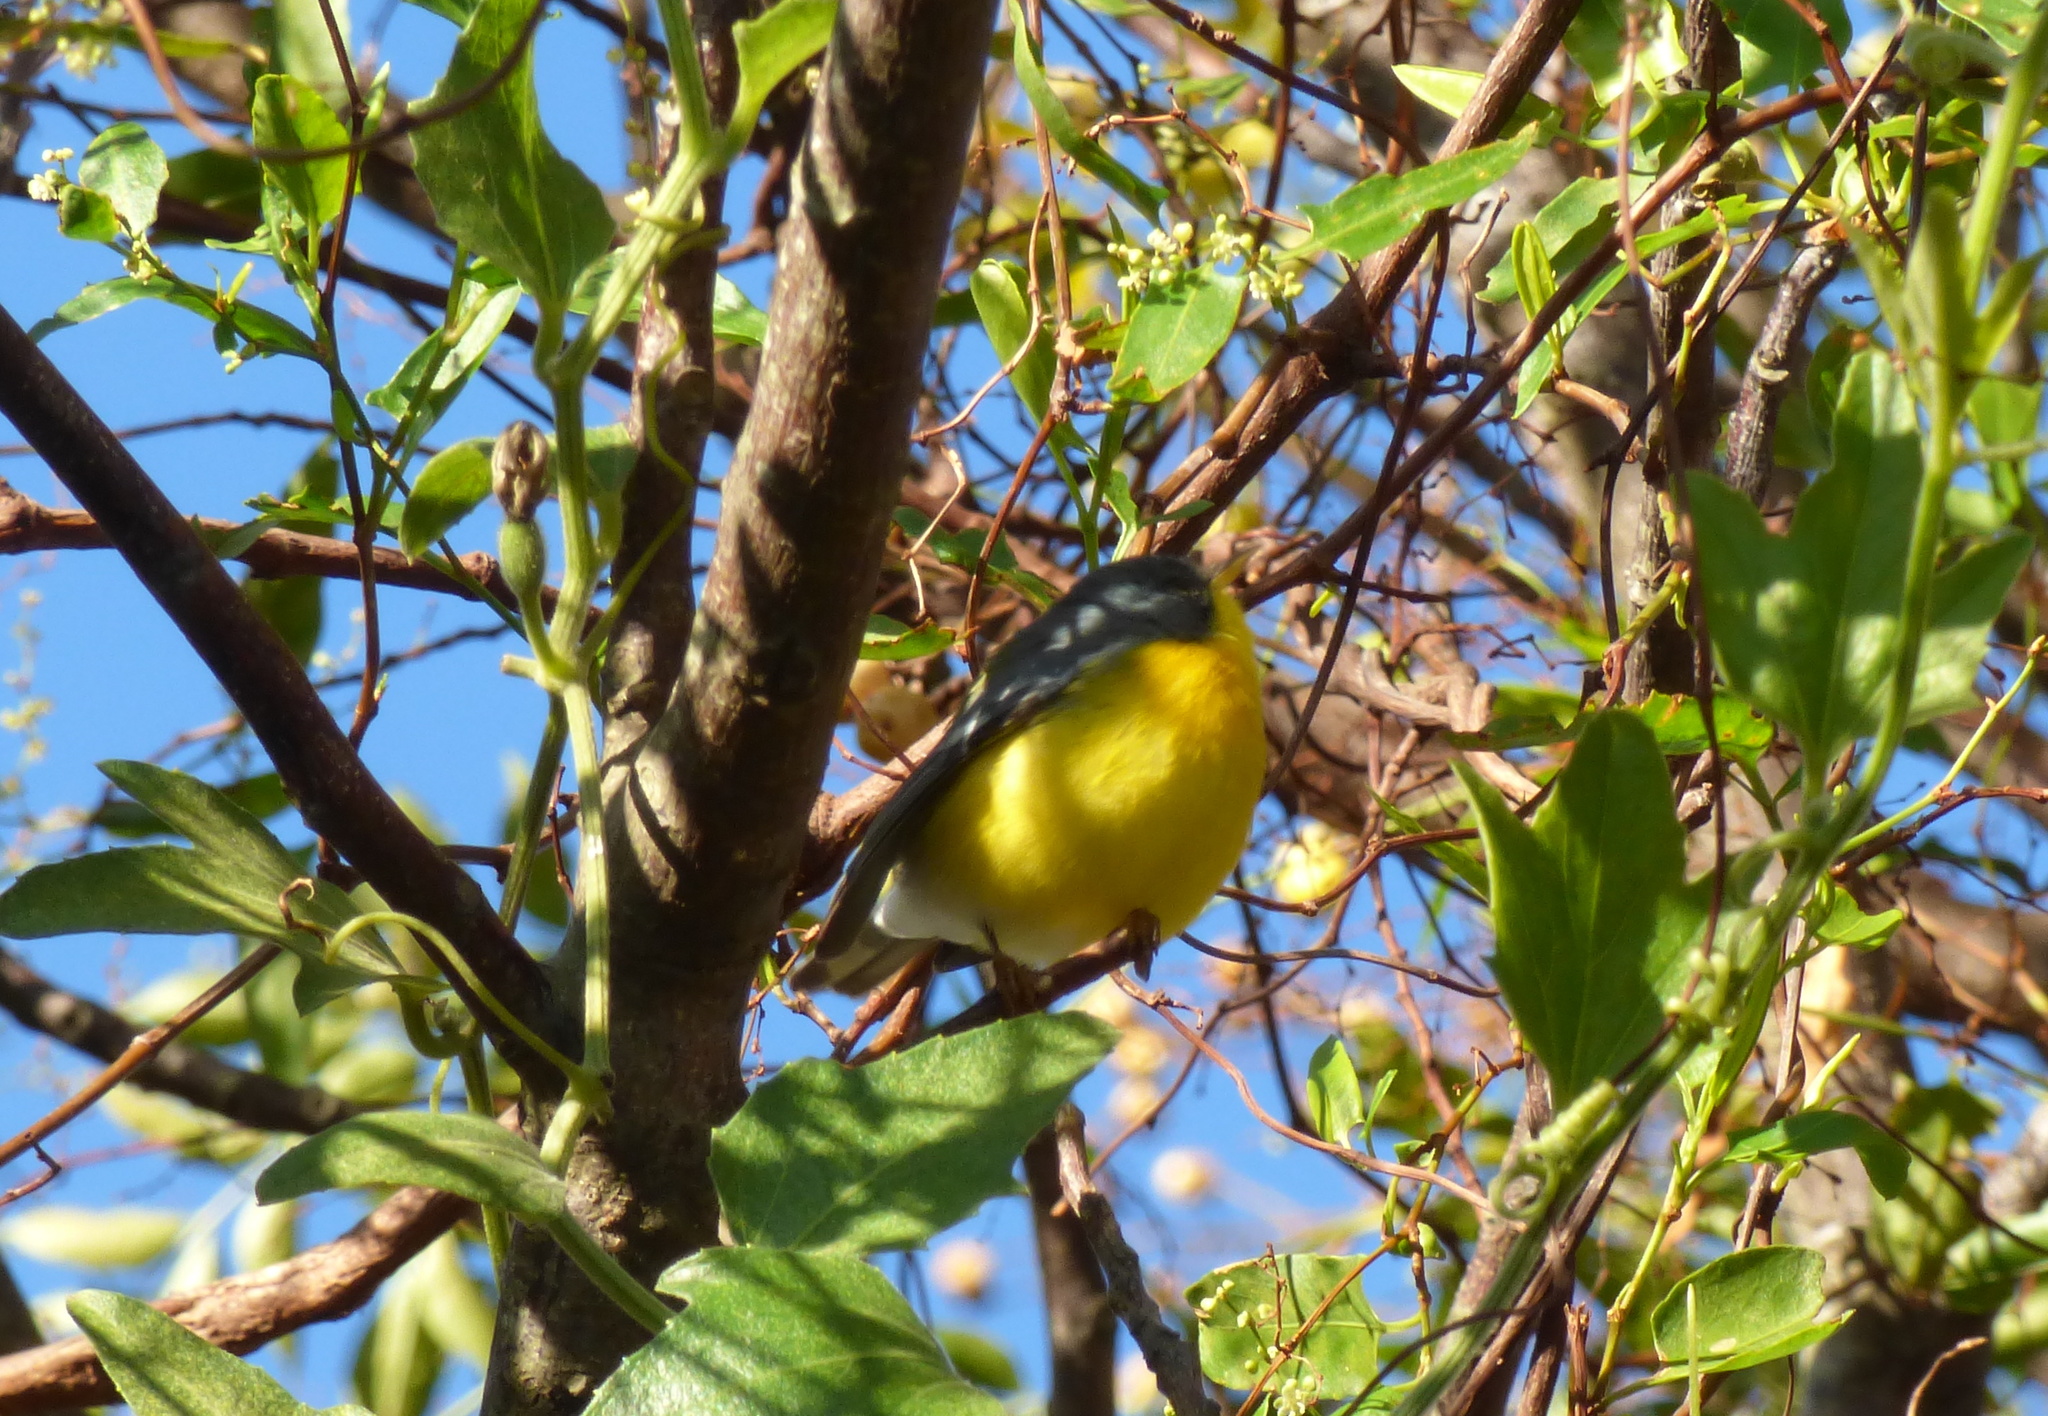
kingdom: Animalia
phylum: Chordata
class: Aves
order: Passeriformes
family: Parulidae
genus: Setophaga
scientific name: Setophaga pitiayumi
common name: Tropical parula
